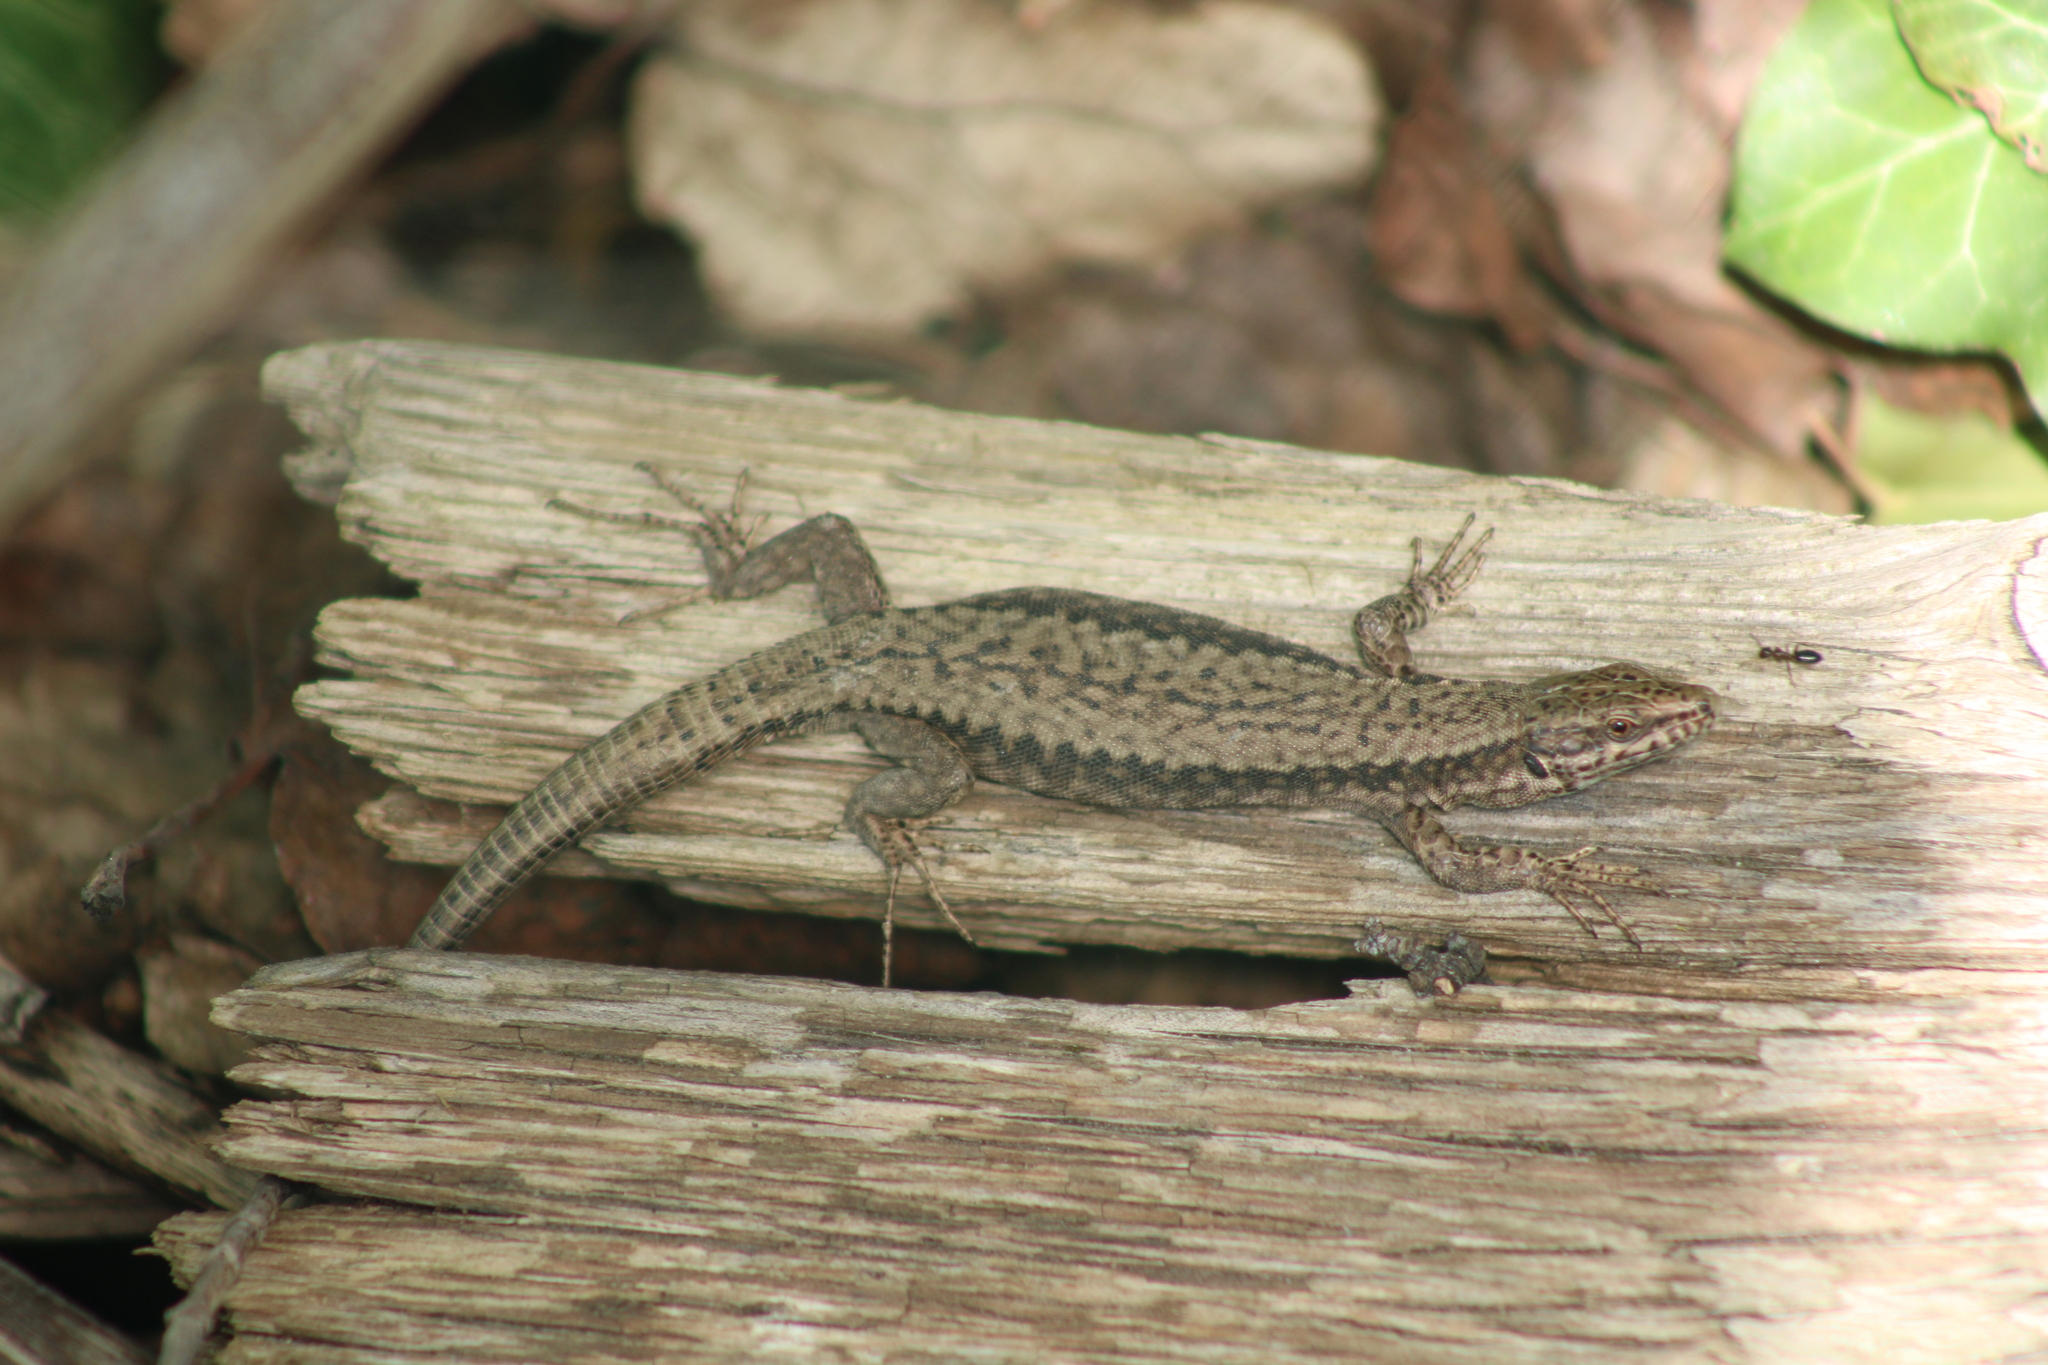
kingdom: Animalia
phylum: Chordata
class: Squamata
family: Lacertidae
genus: Podarcis
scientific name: Podarcis muralis
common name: Common wall lizard
